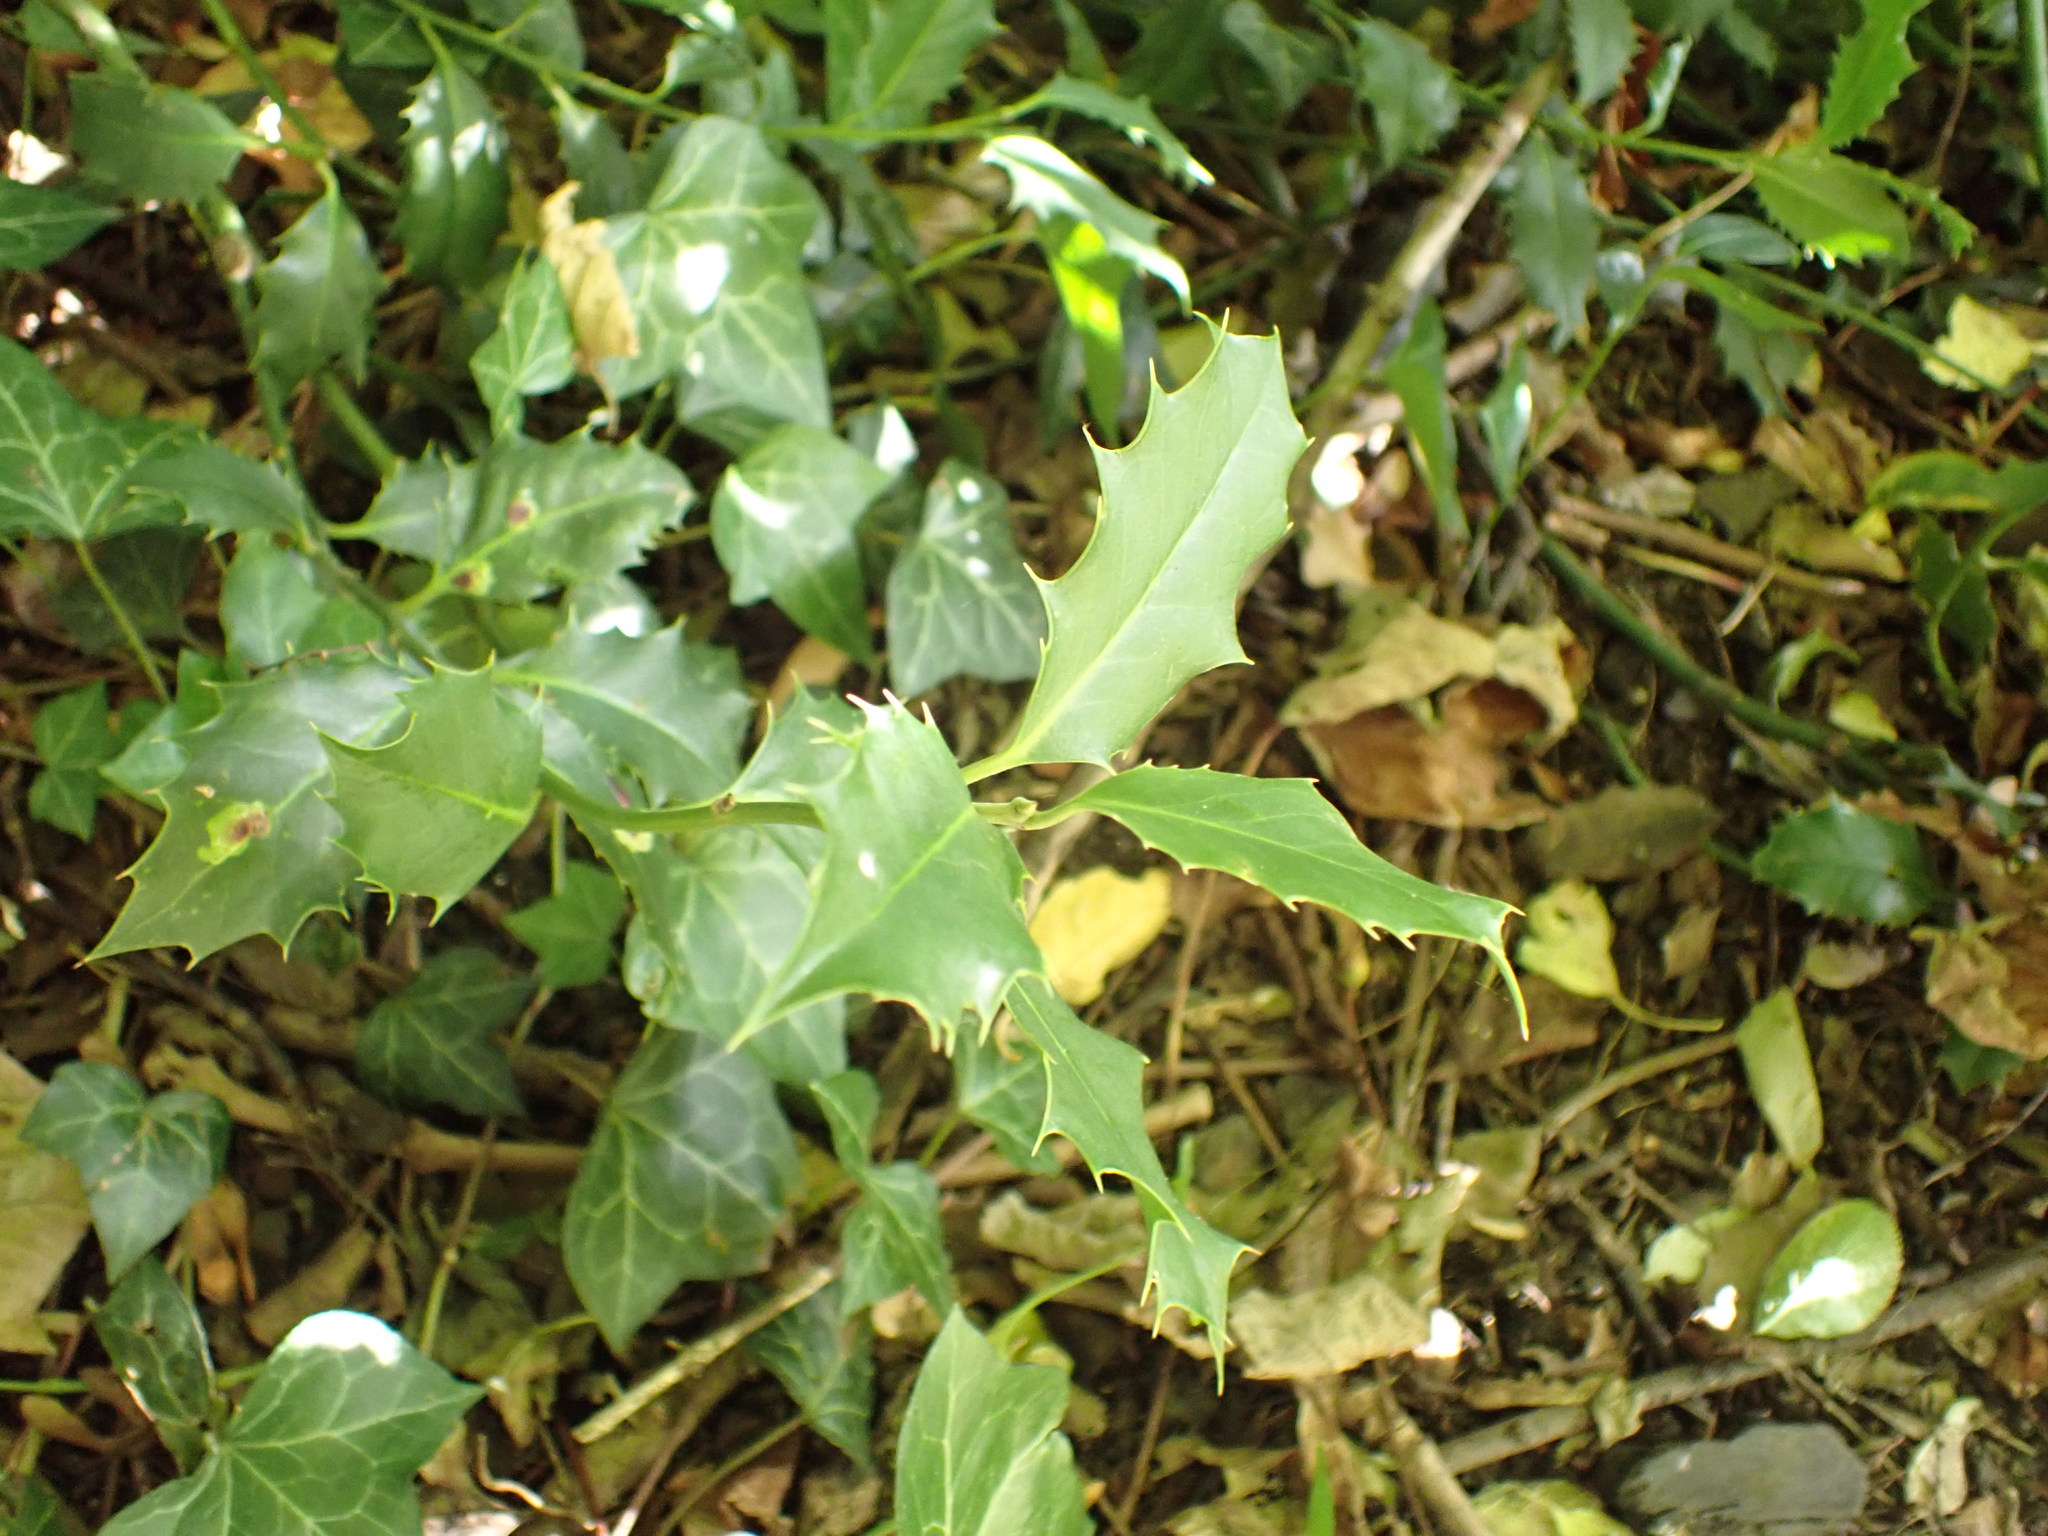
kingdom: Plantae
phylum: Tracheophyta
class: Magnoliopsida
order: Aquifoliales
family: Aquifoliaceae
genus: Ilex
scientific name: Ilex aquifolium
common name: English holly
